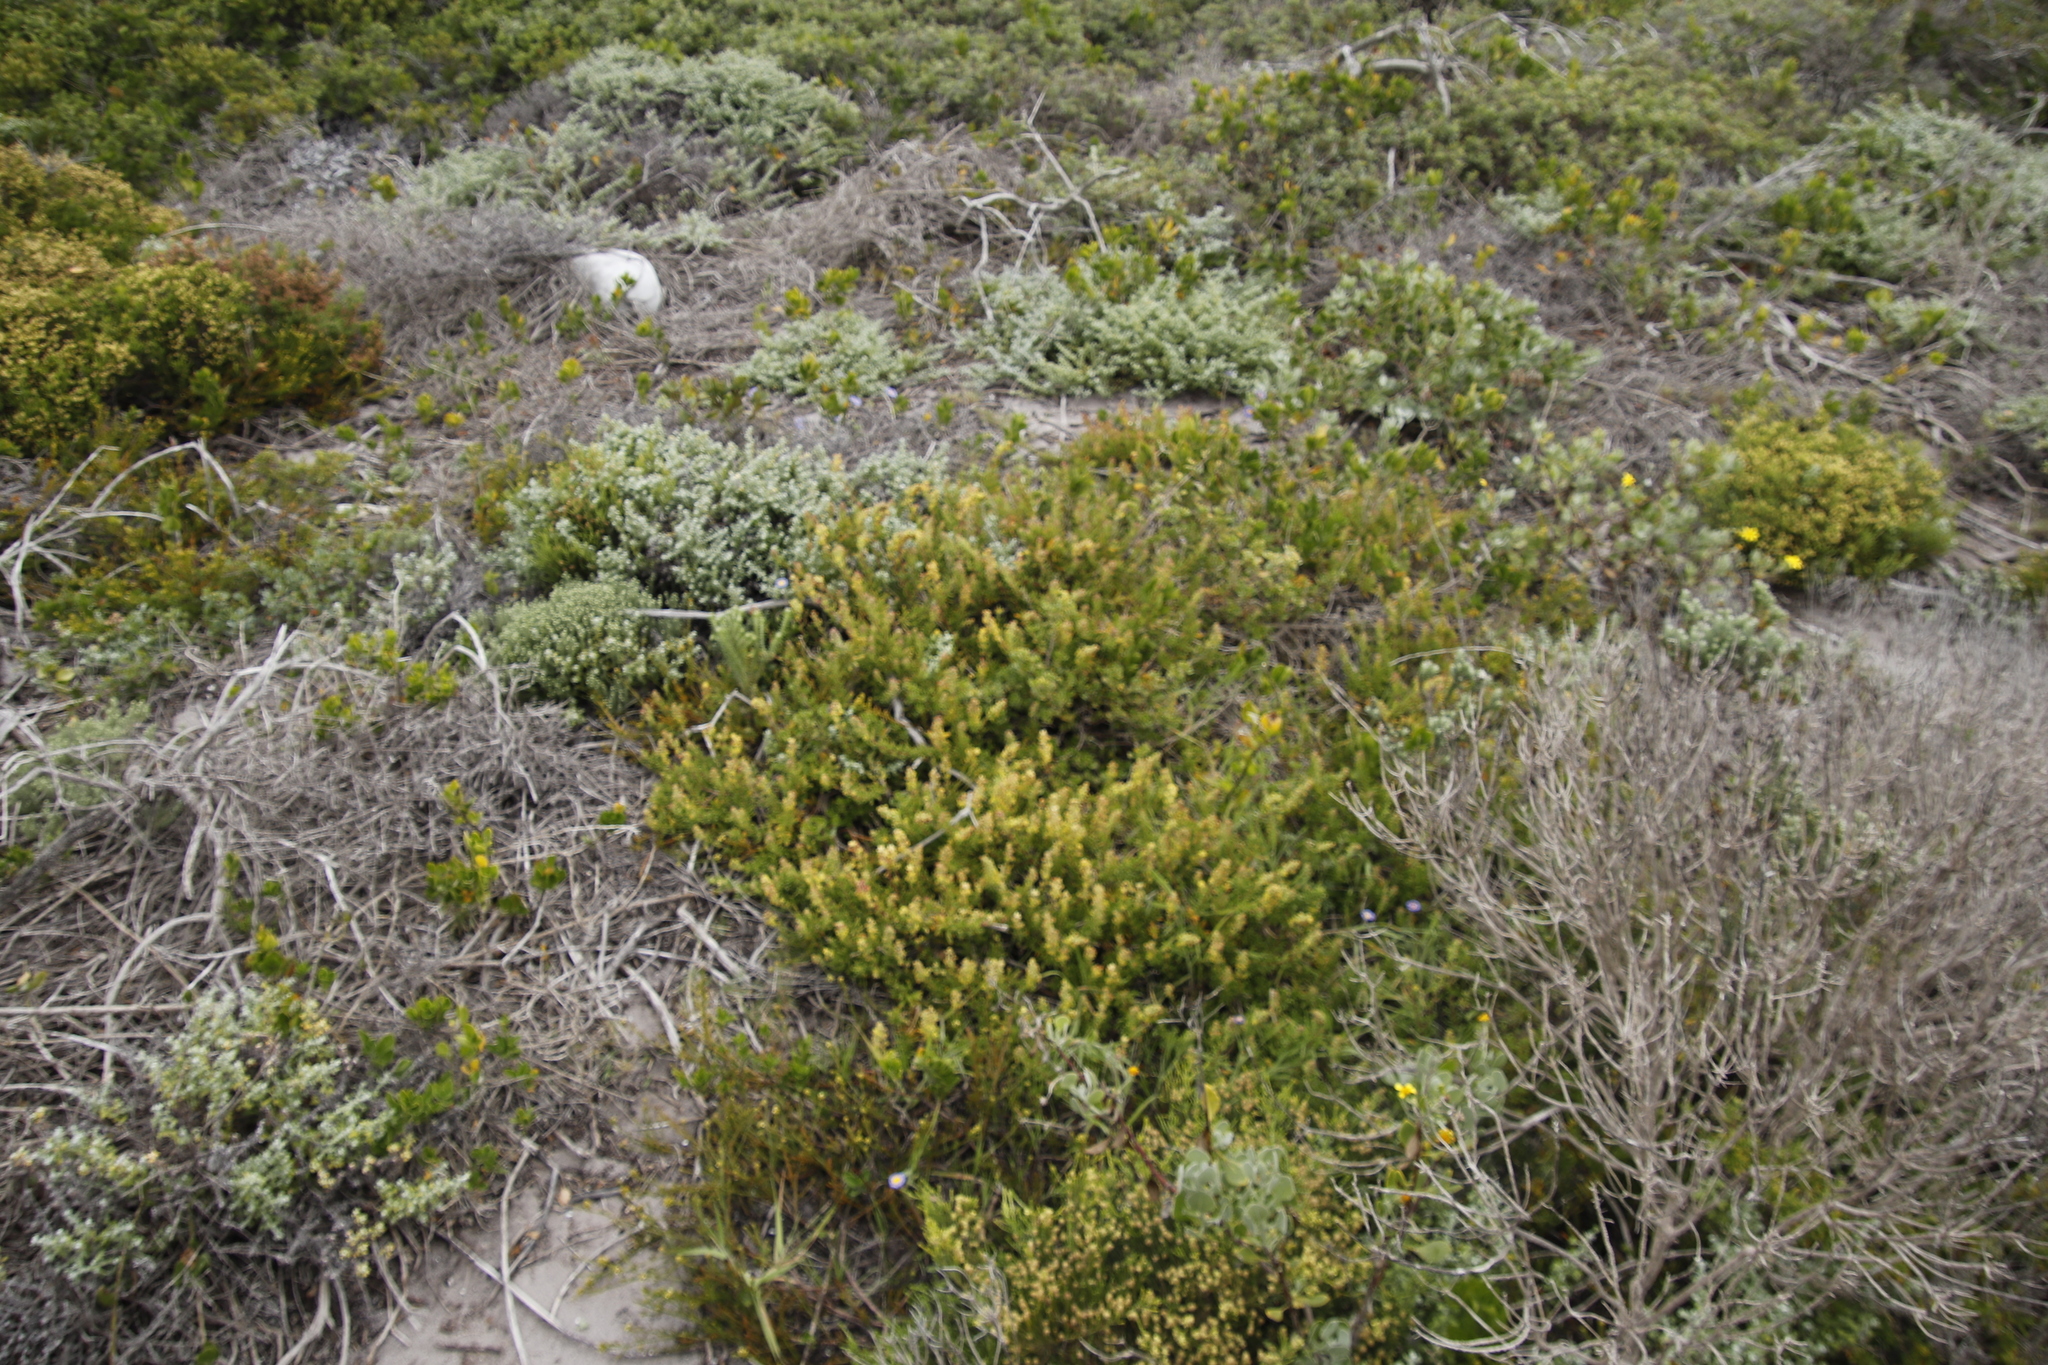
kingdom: Plantae
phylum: Tracheophyta
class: Magnoliopsida
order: Caryophyllales
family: Aizoaceae
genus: Tetragonia
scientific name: Tetragonia fruticosa
